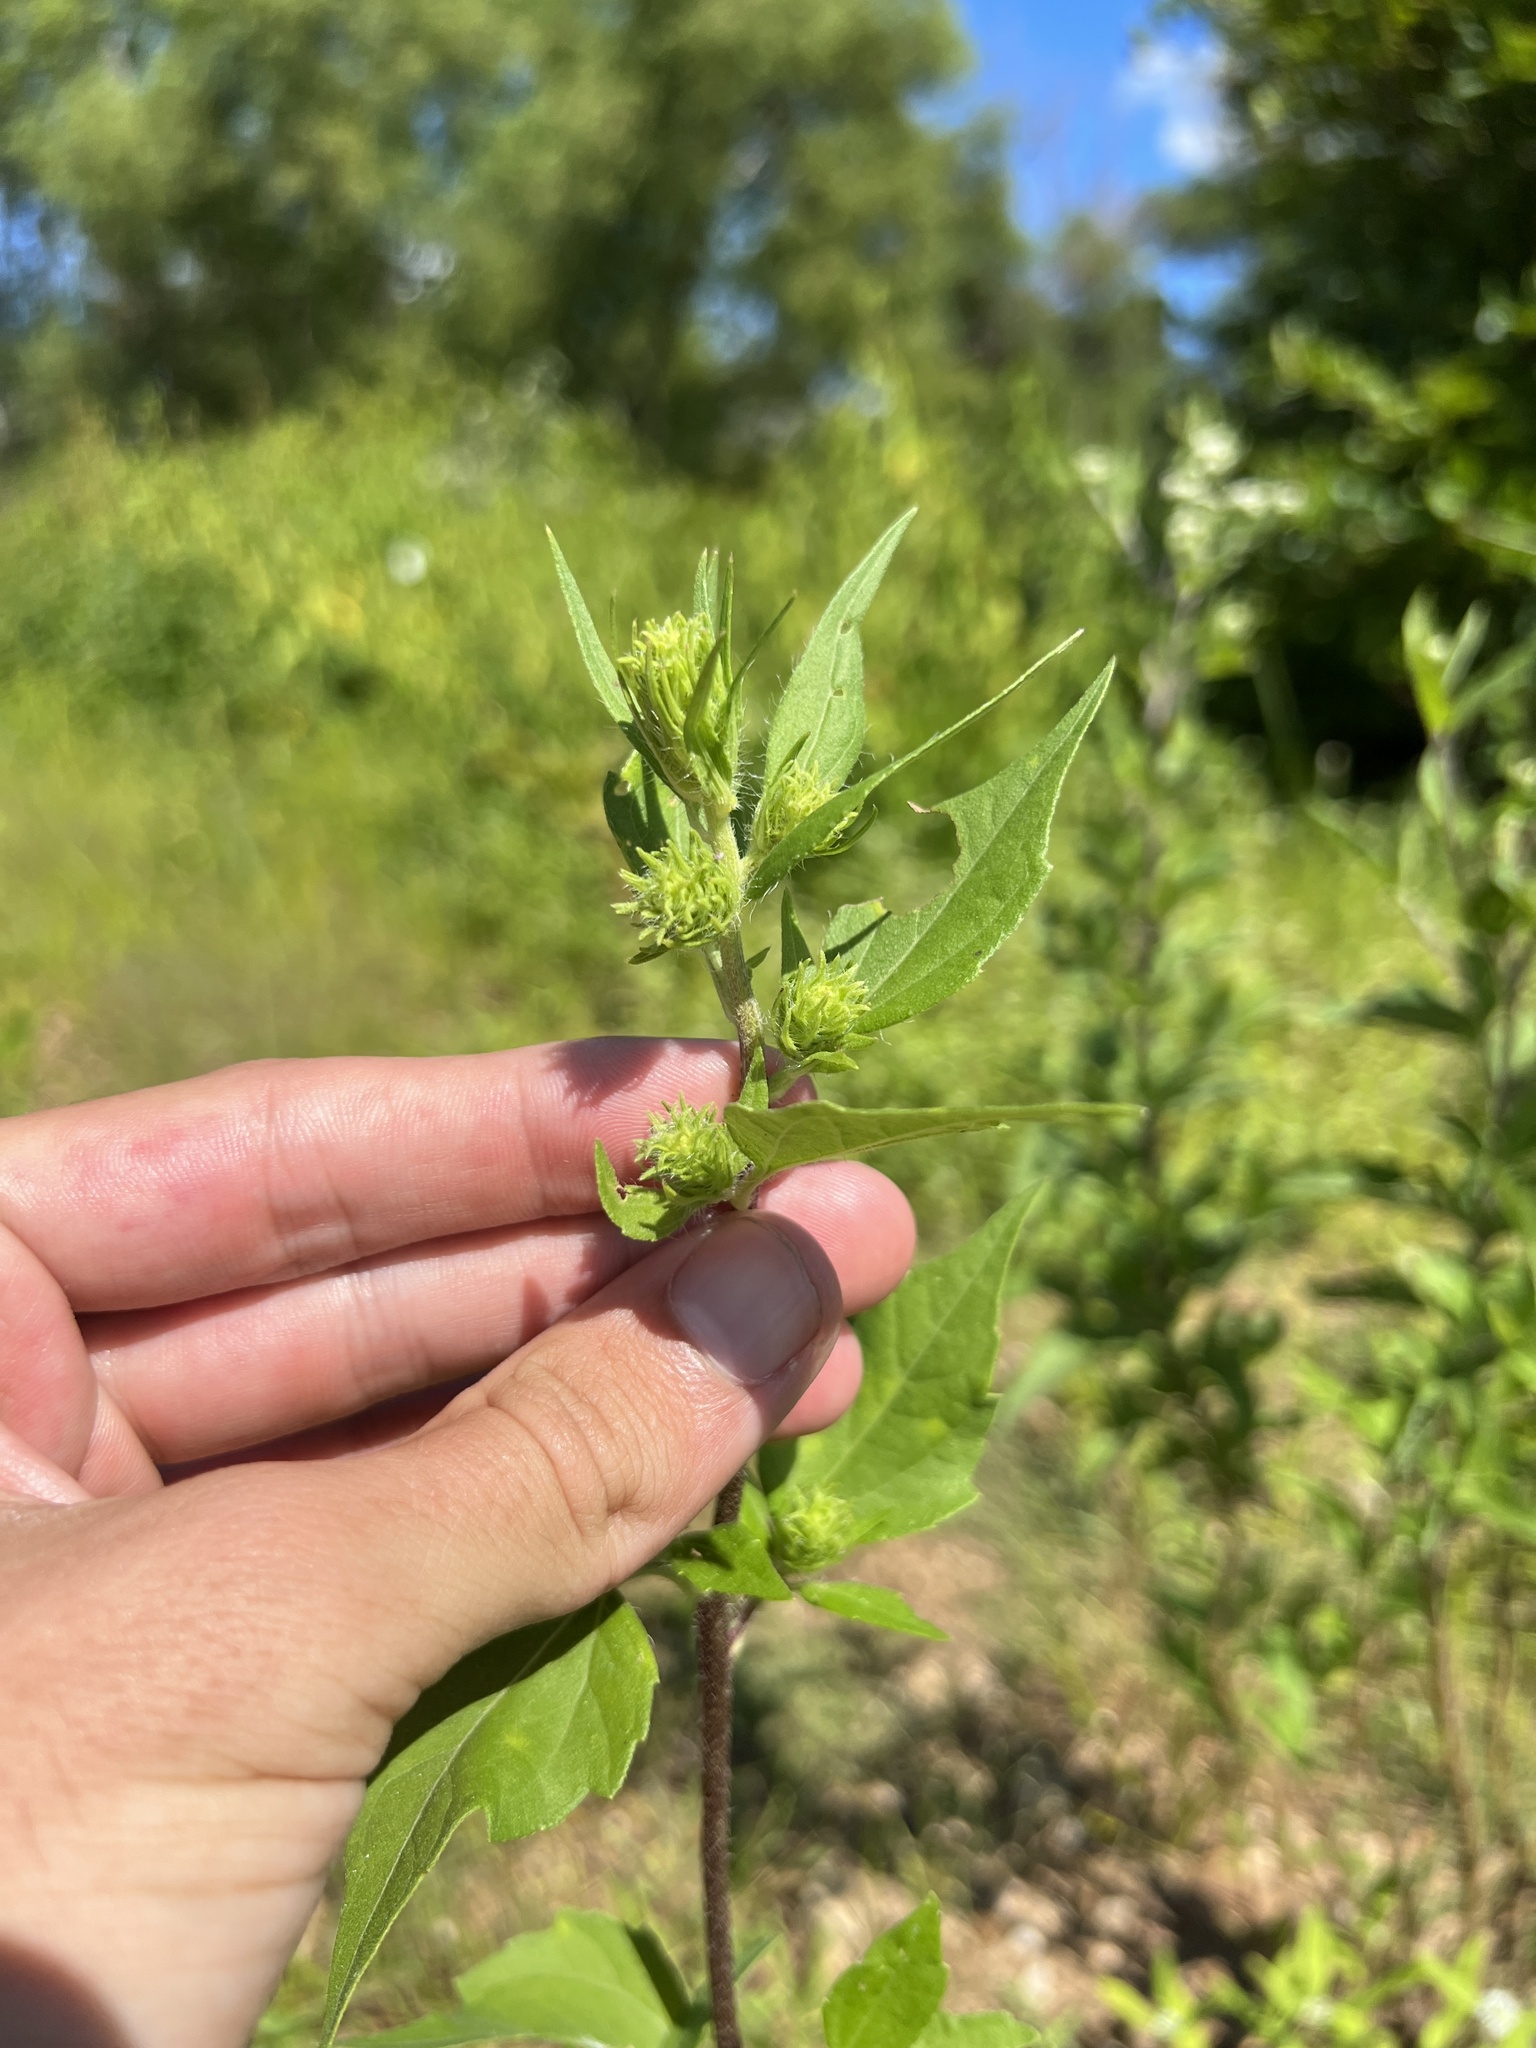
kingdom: Plantae
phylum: Tracheophyta
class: Magnoliopsida
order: Asterales
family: Asteraceae
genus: Iva
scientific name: Iva annua
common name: Marsh-elder
